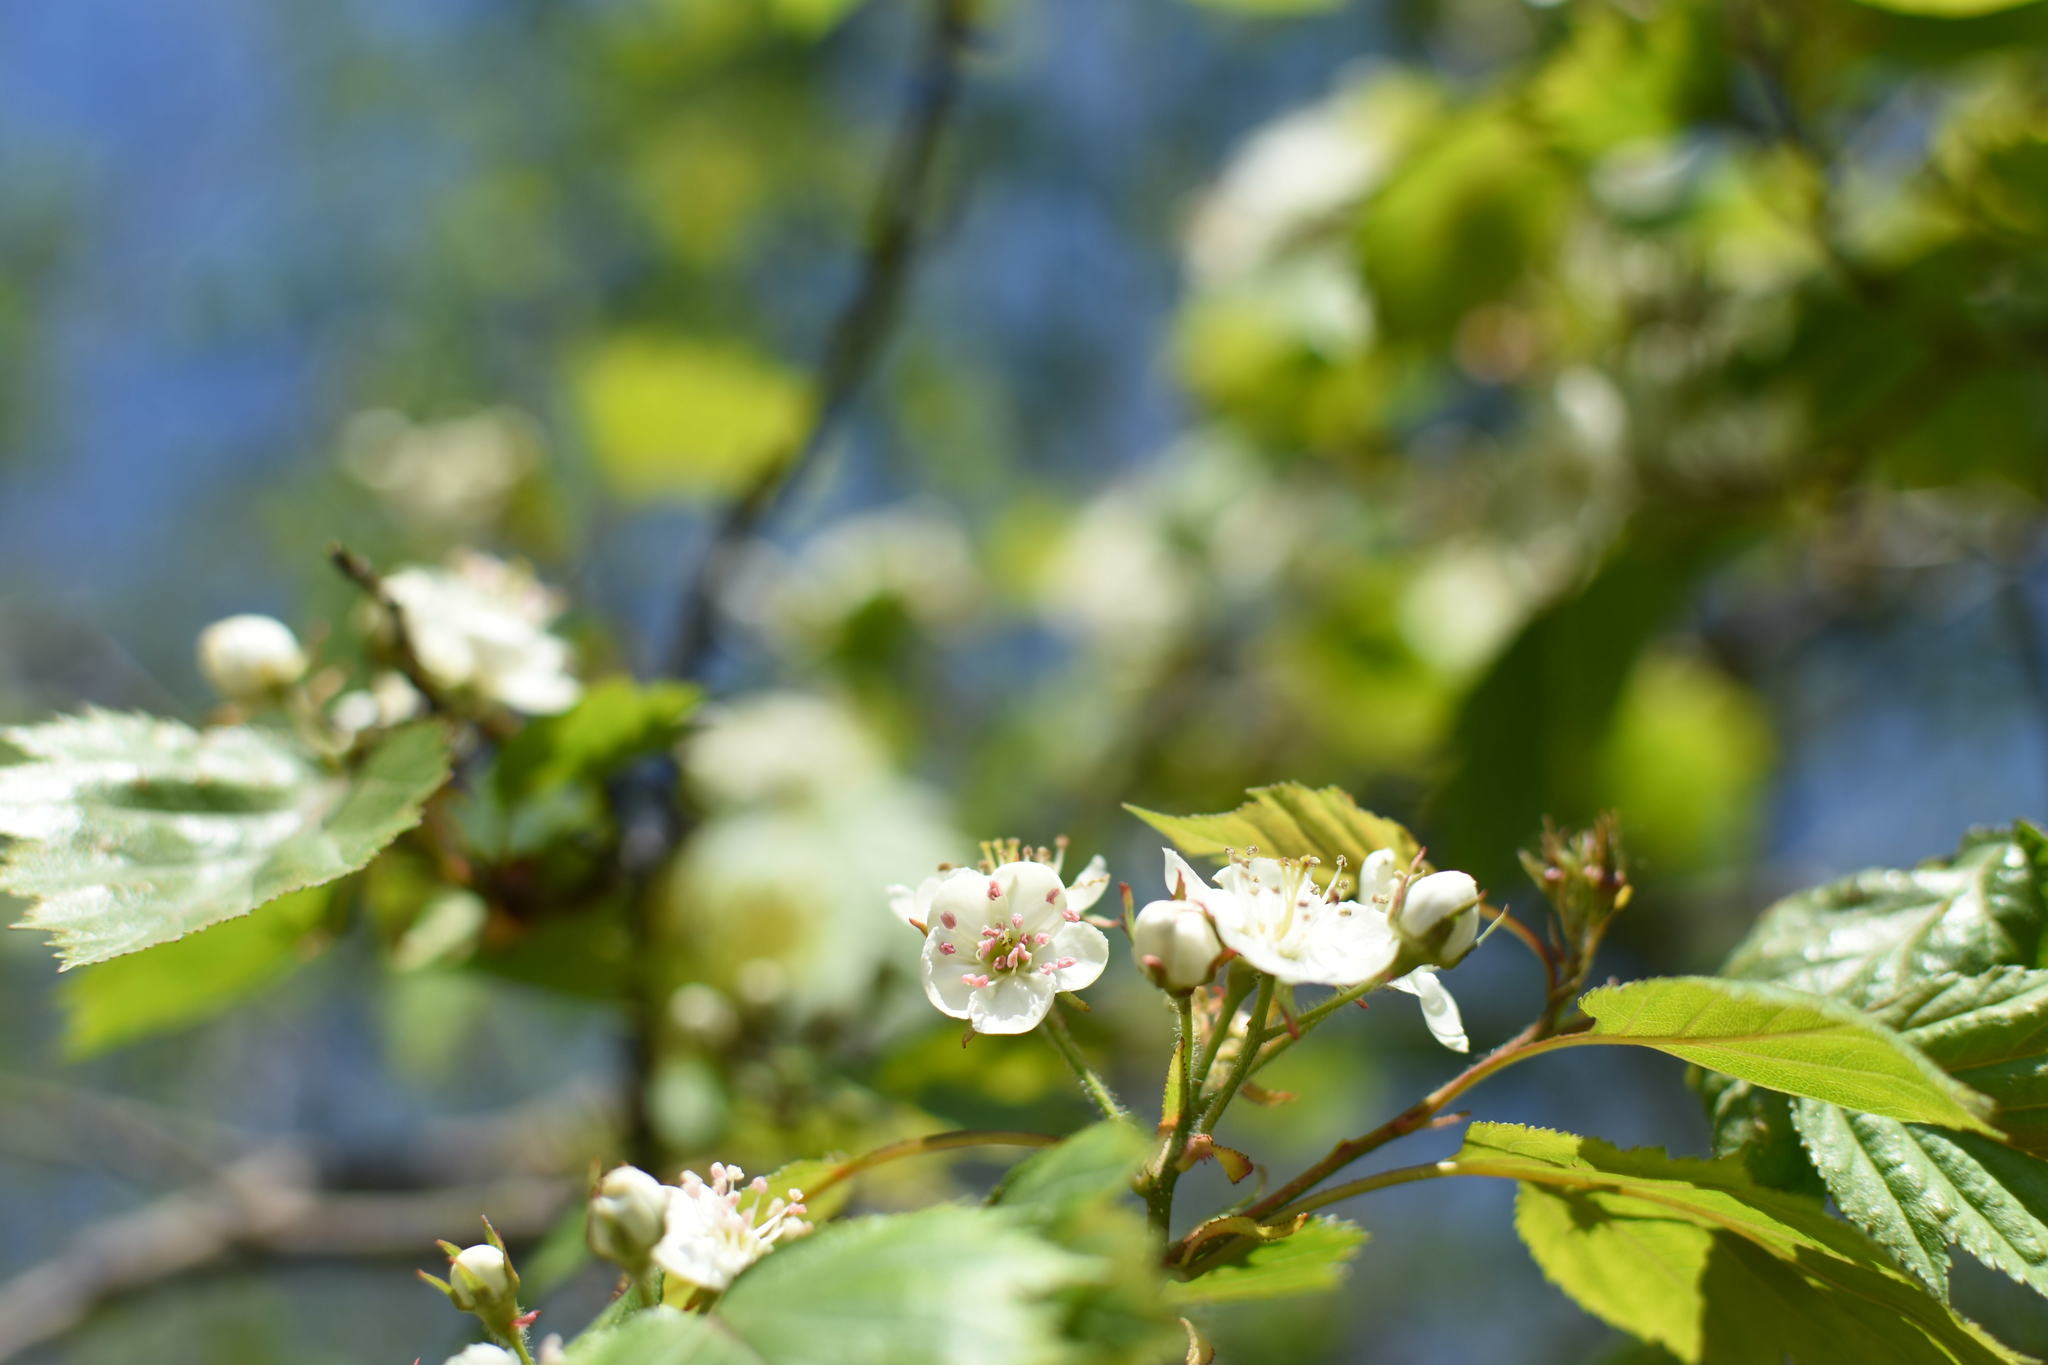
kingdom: Plantae
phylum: Tracheophyta
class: Magnoliopsida
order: Rosales
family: Rosaceae
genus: Crataegus
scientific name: Crataegus flabellata
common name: Bosc's hawthorn
